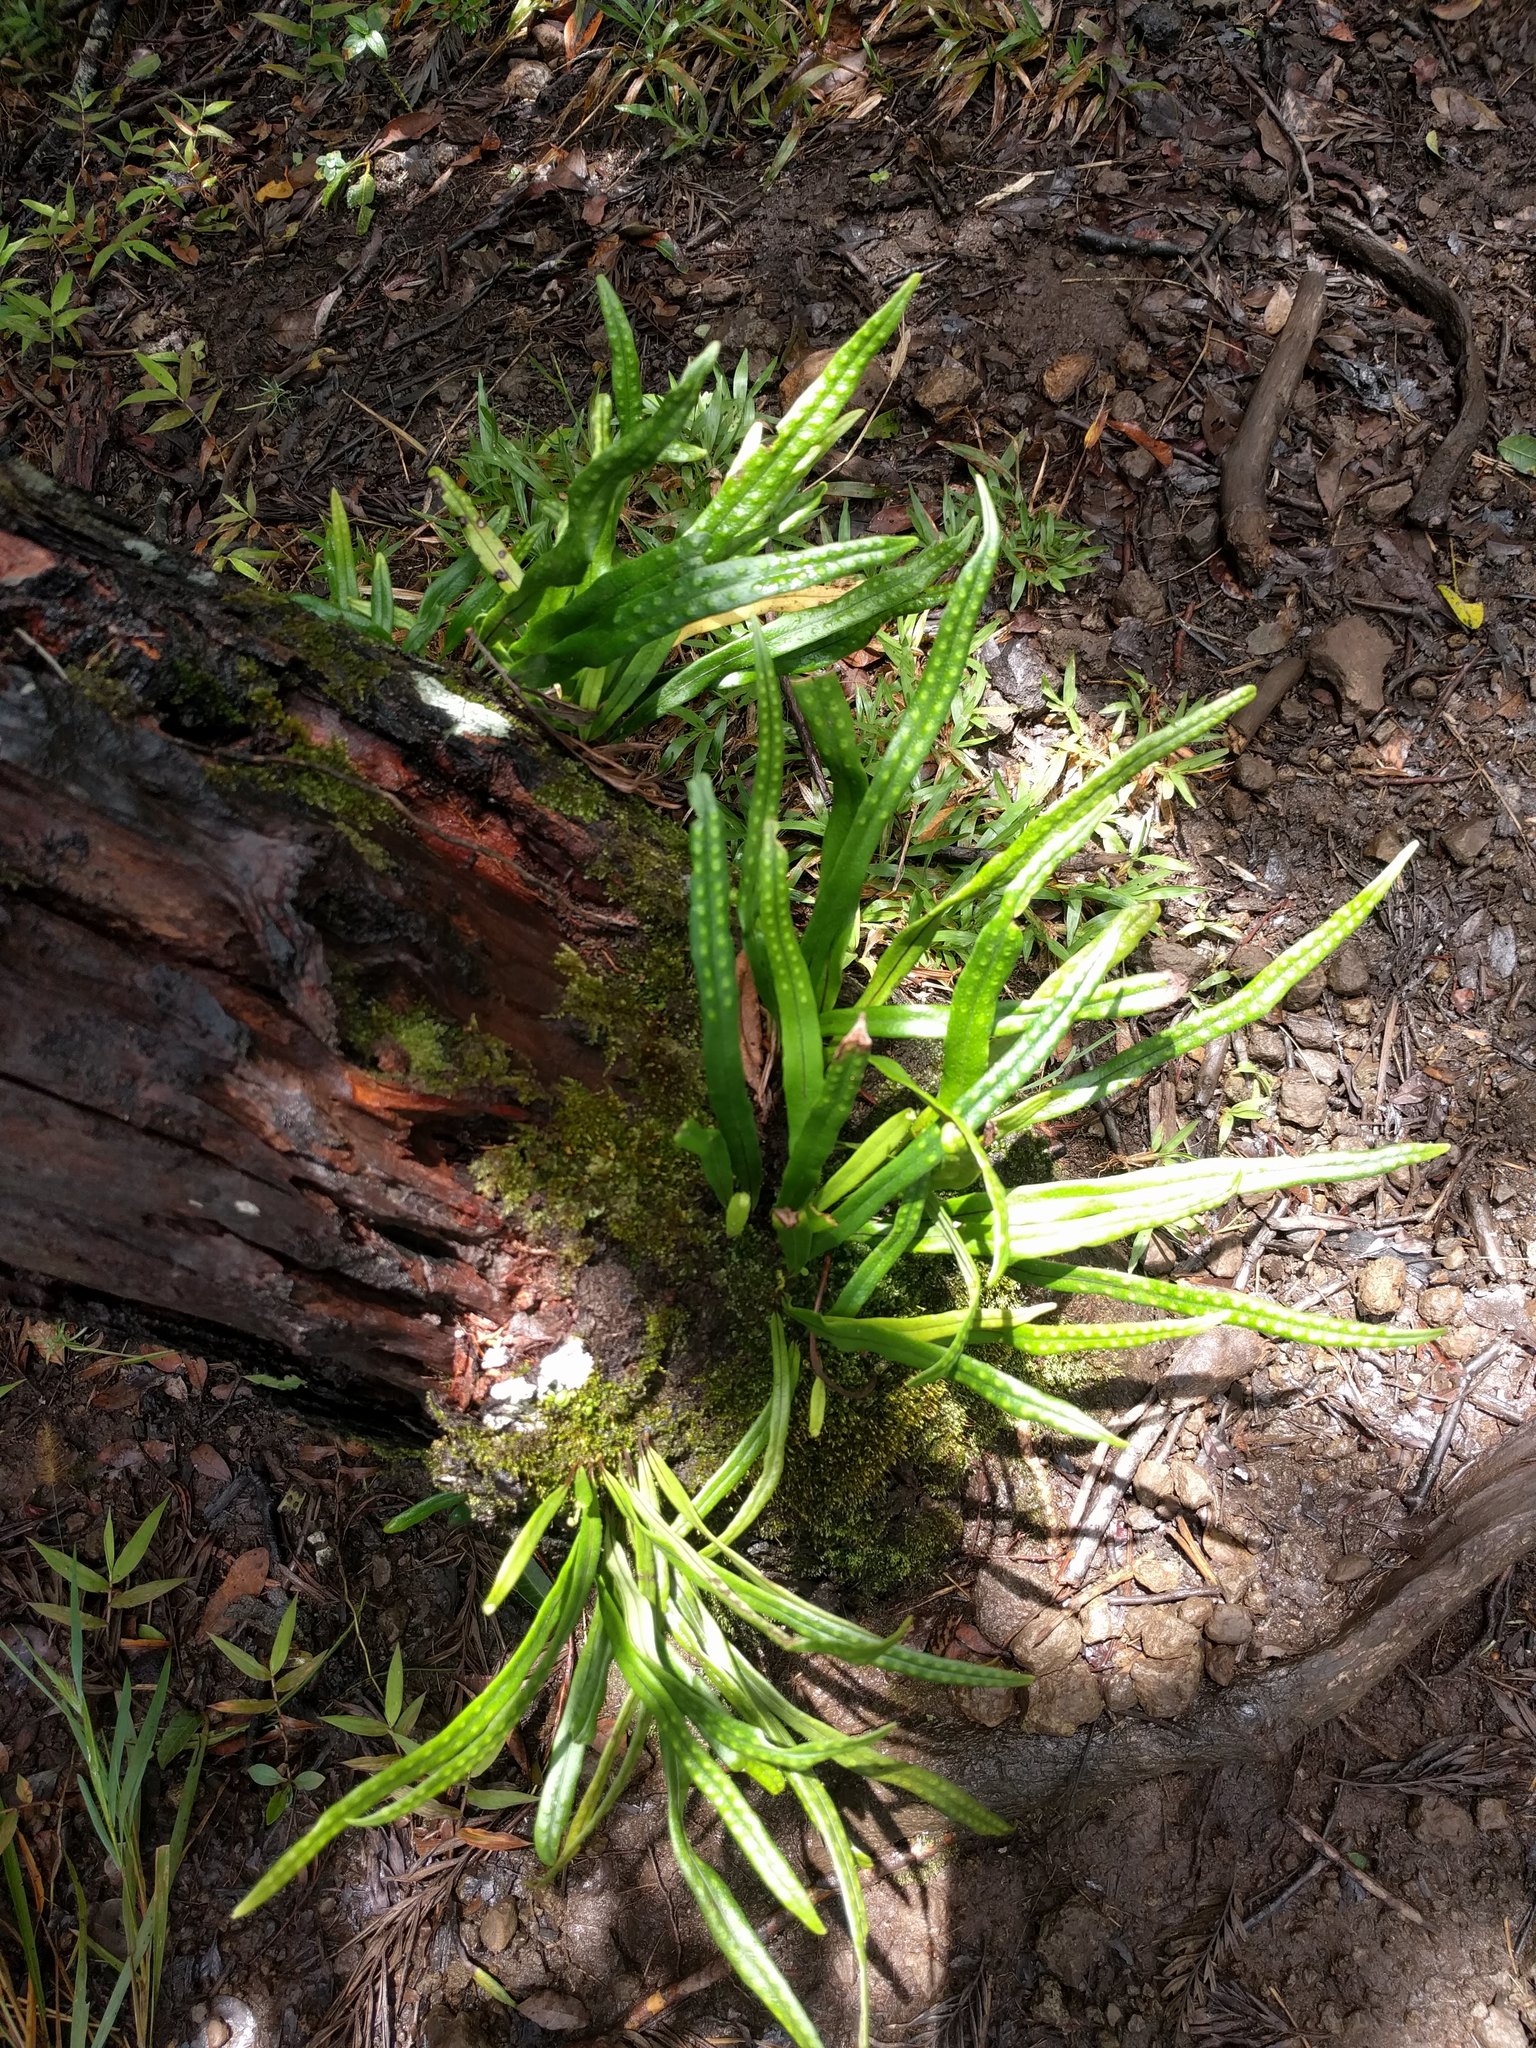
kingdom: Plantae
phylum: Tracheophyta
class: Polypodiopsida
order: Polypodiales
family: Polypodiaceae
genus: Lepisorus
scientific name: Lepisorus thunbergianus
